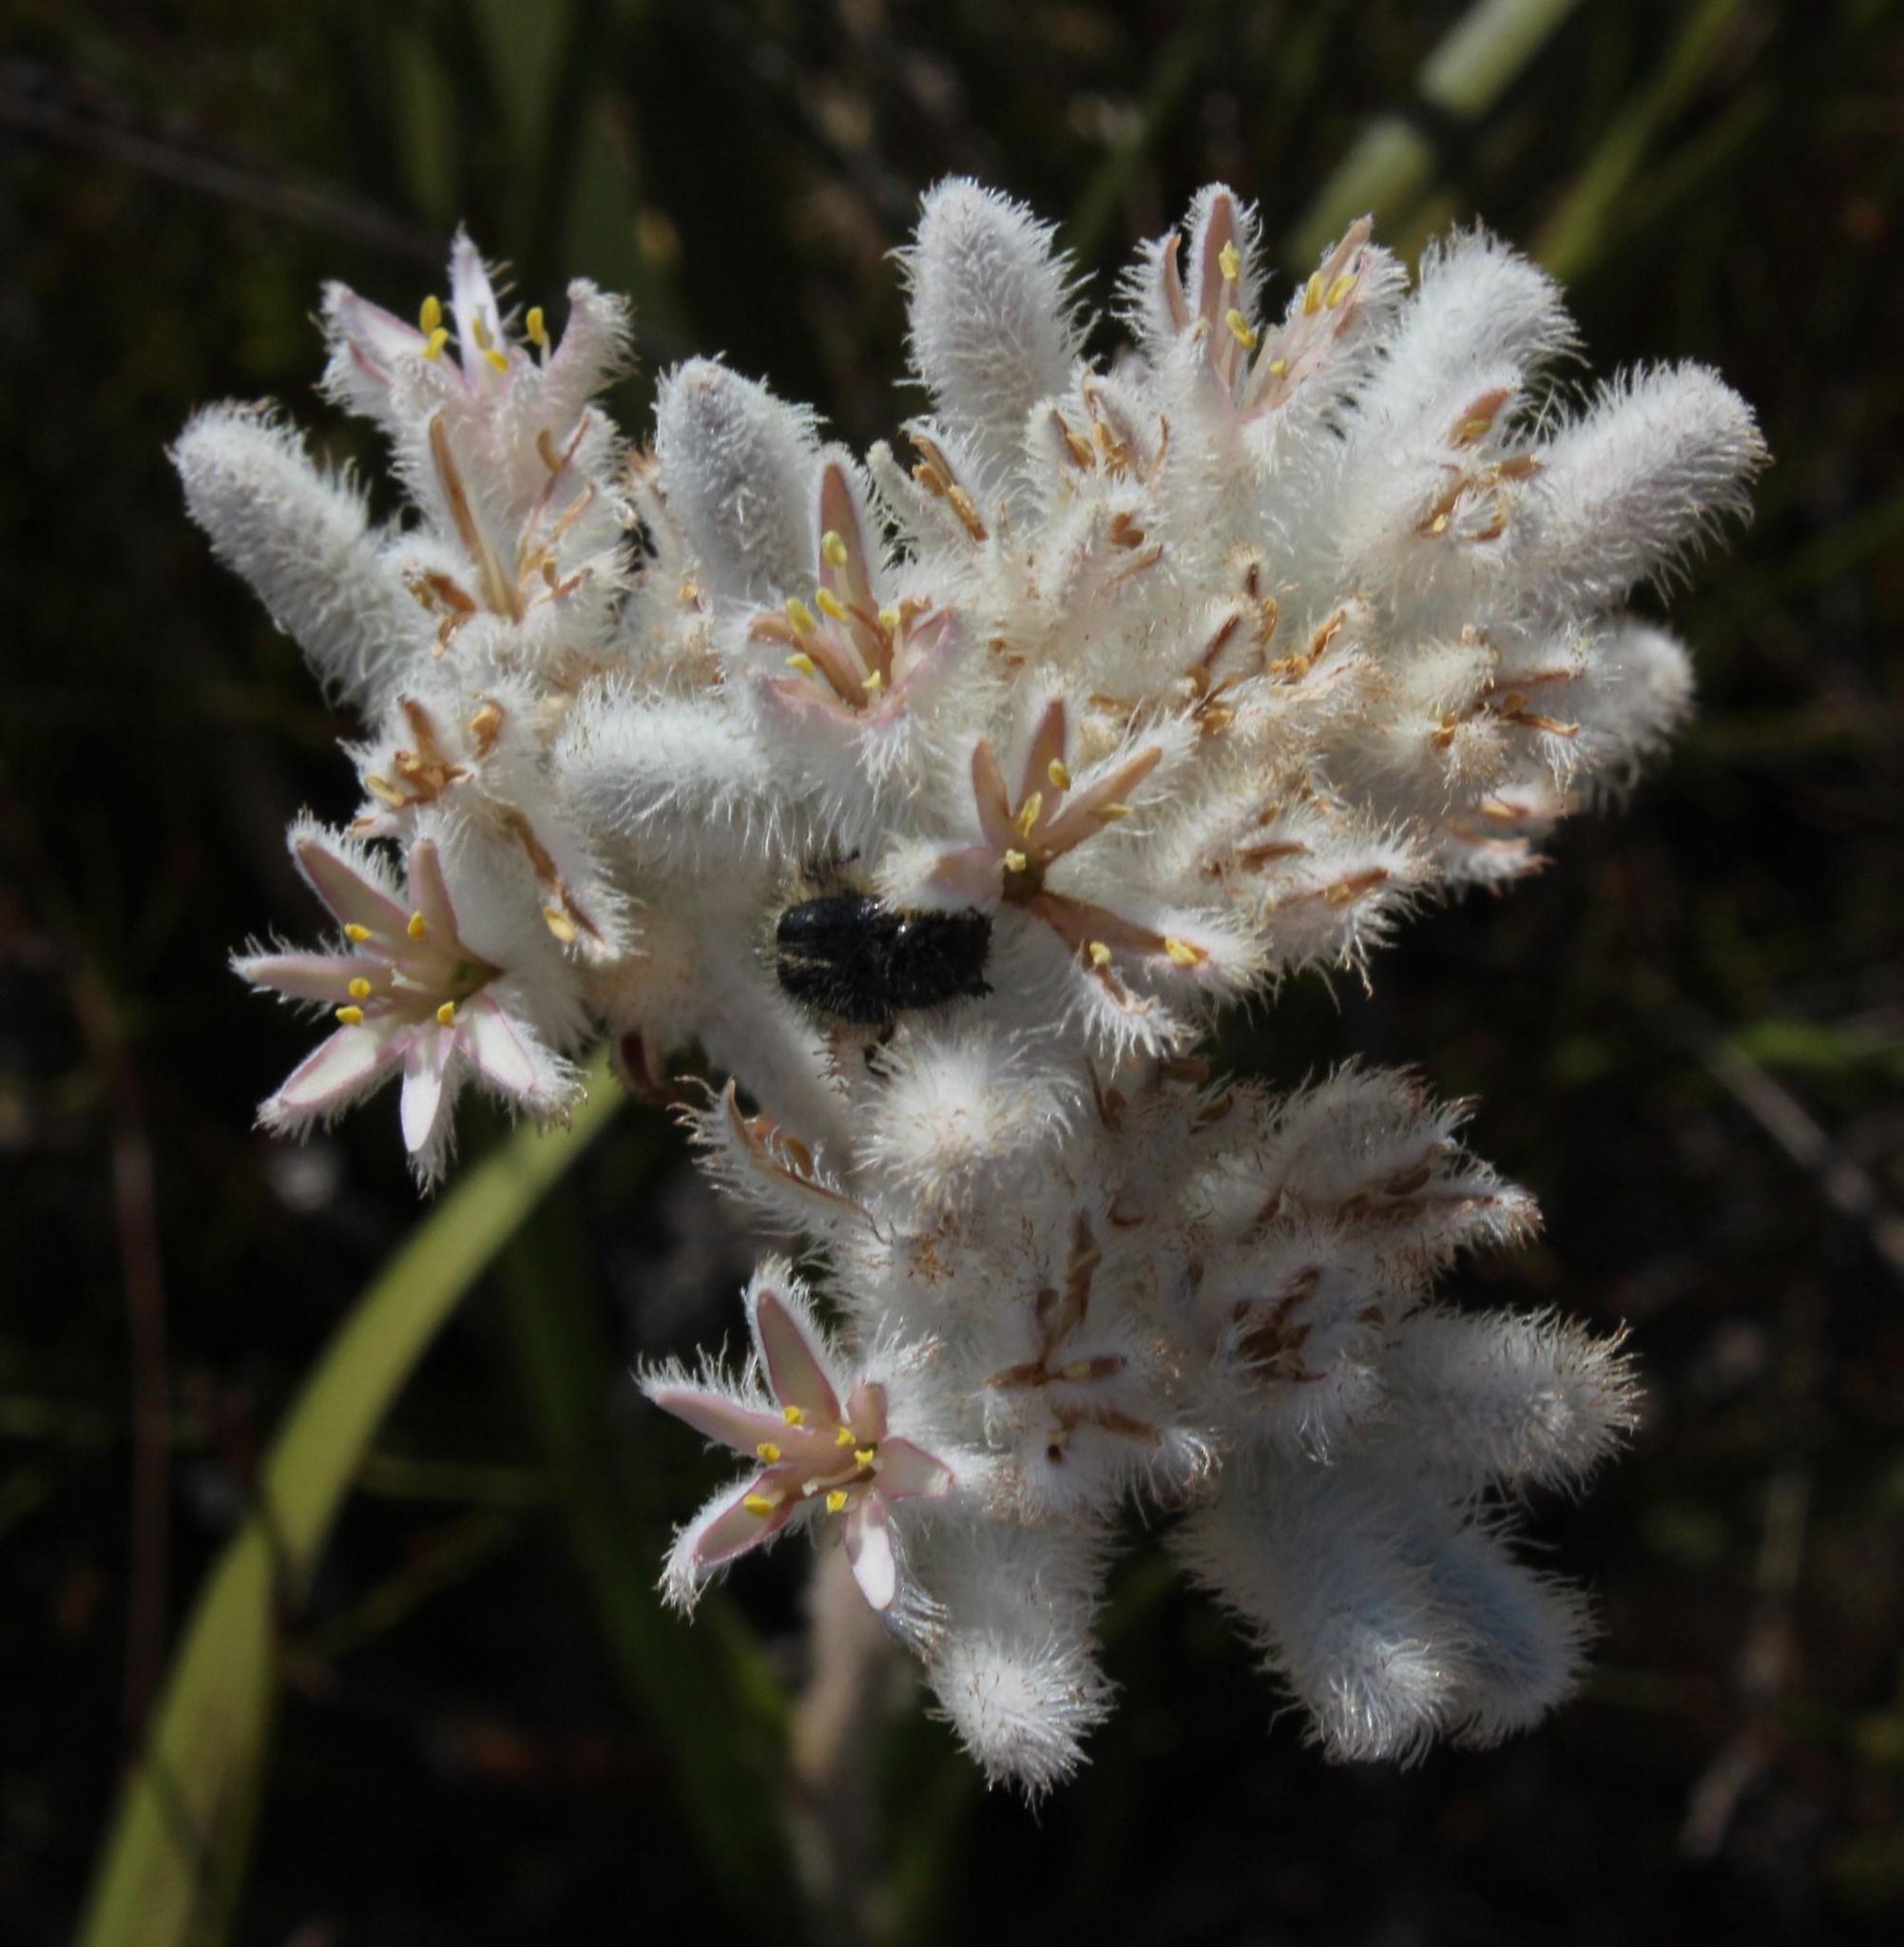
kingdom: Plantae
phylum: Tracheophyta
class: Liliopsida
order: Asparagales
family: Lanariaceae
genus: Lanaria
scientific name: Lanaria lanata
